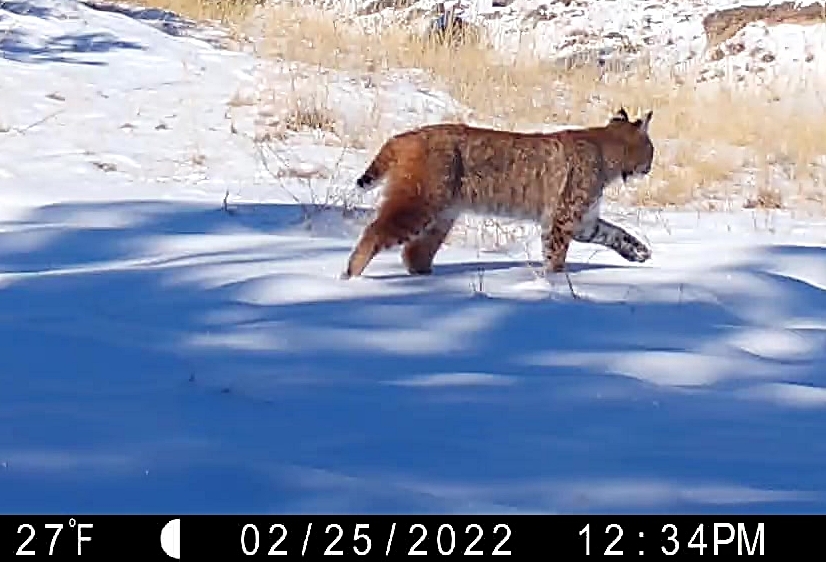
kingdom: Animalia
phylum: Chordata
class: Mammalia
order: Carnivora
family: Felidae
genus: Lynx
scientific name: Lynx rufus
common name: Bobcat
